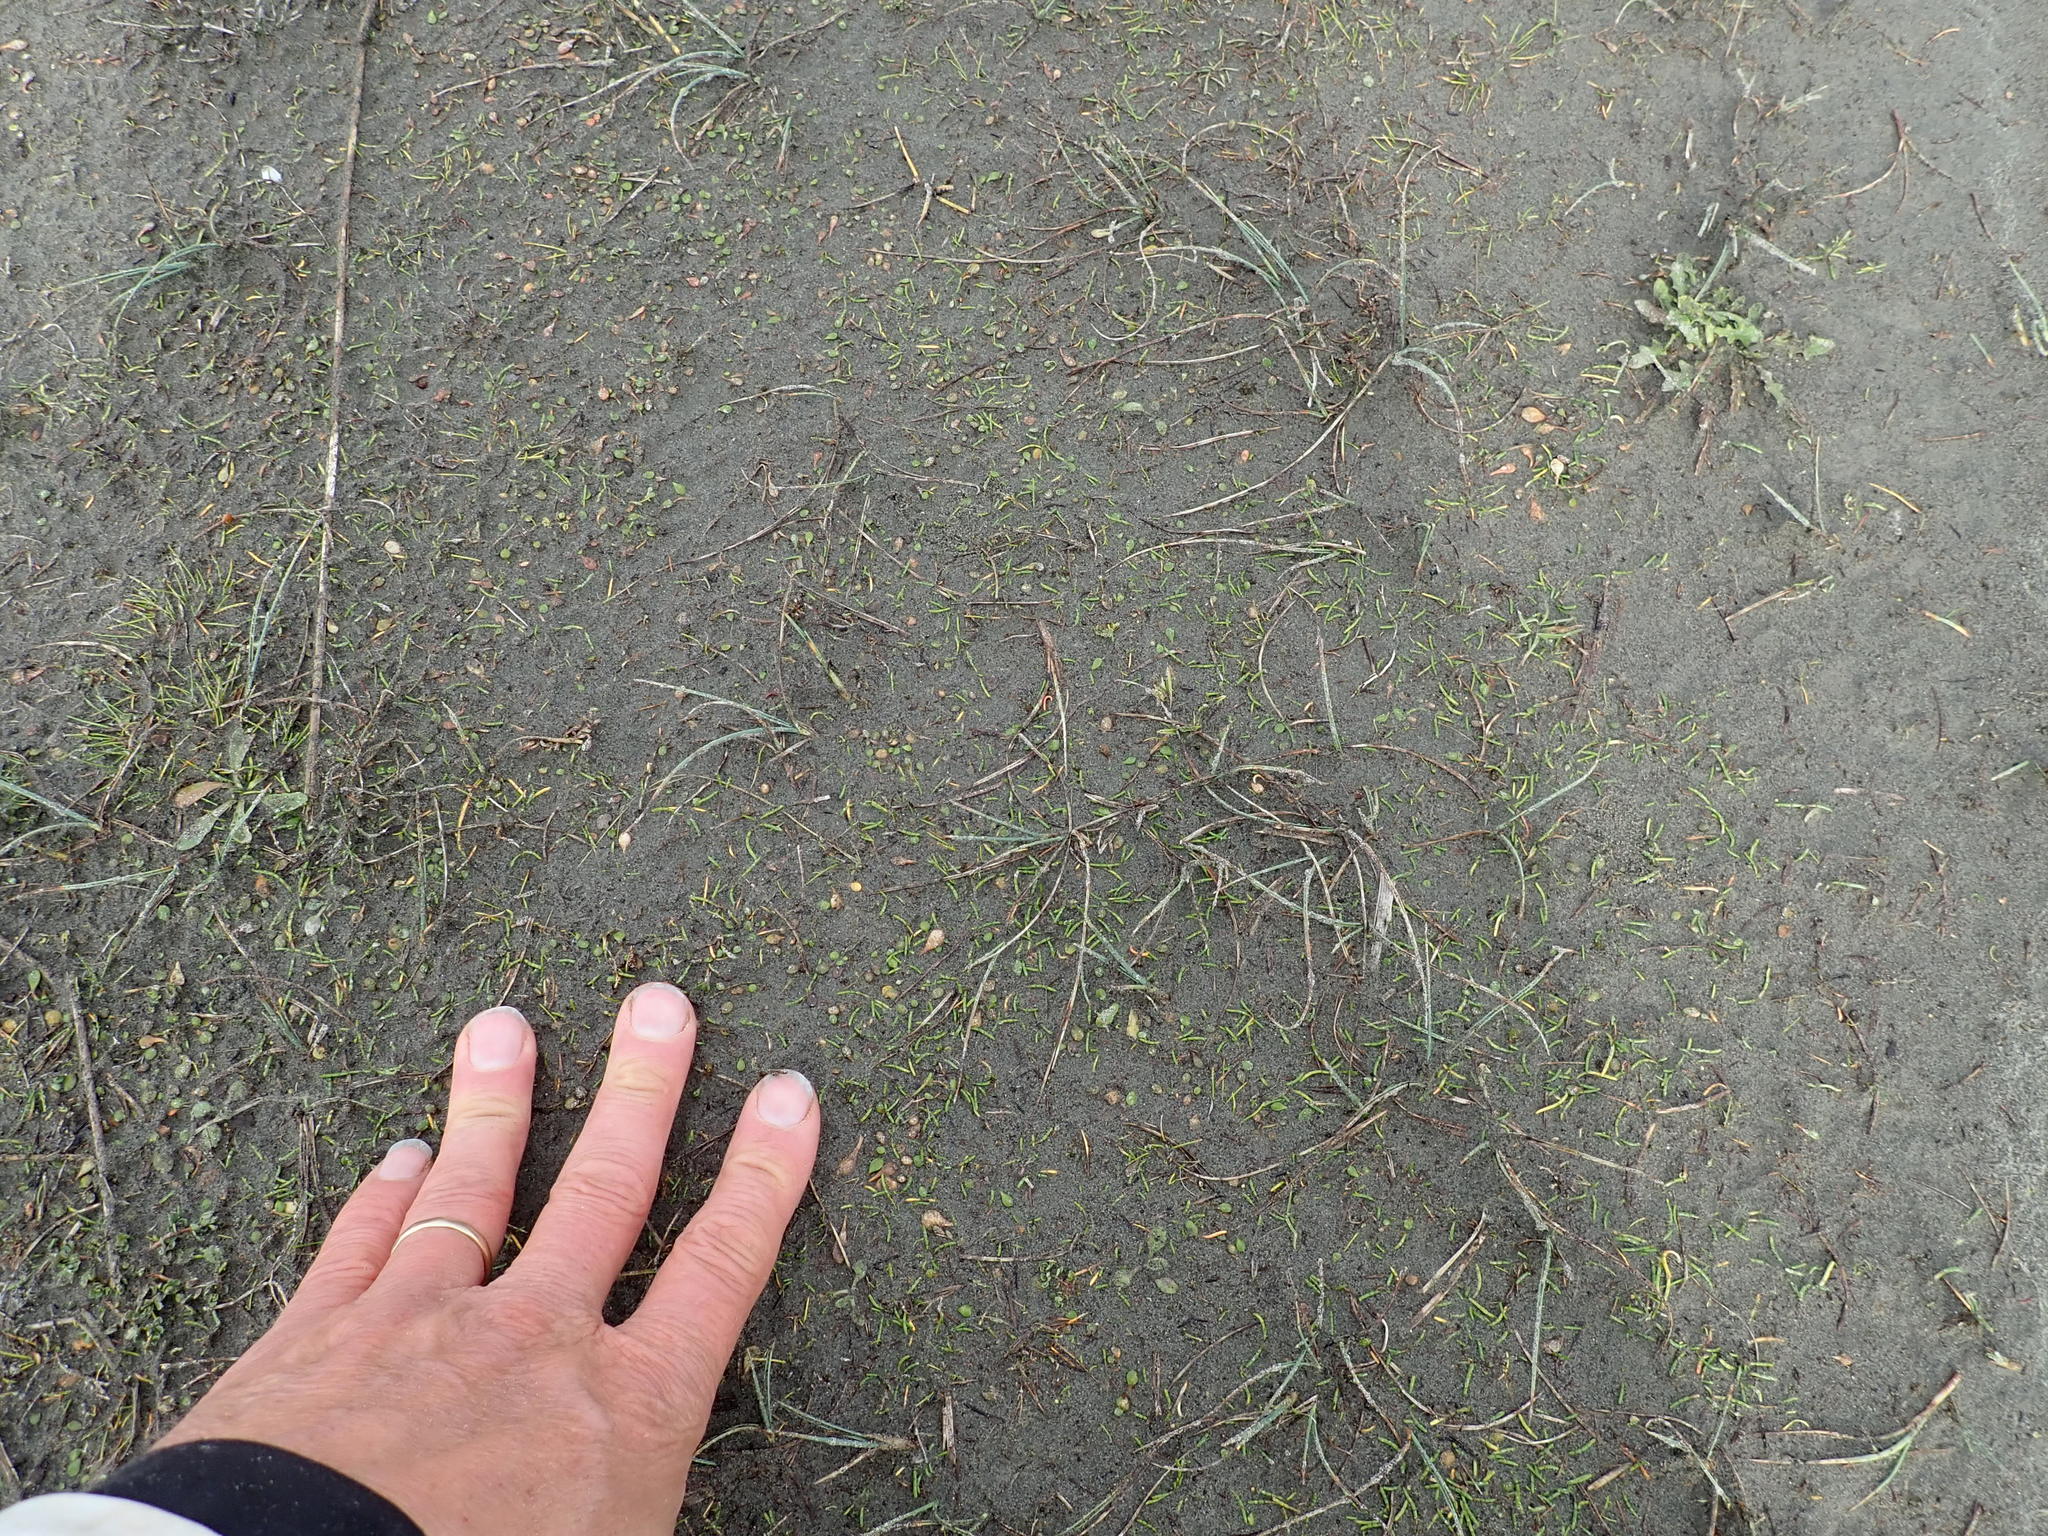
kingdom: Plantae
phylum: Tracheophyta
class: Magnoliopsida
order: Apiales
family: Apiaceae
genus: Lilaeopsis
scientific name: Lilaeopsis novae-zelandiae
